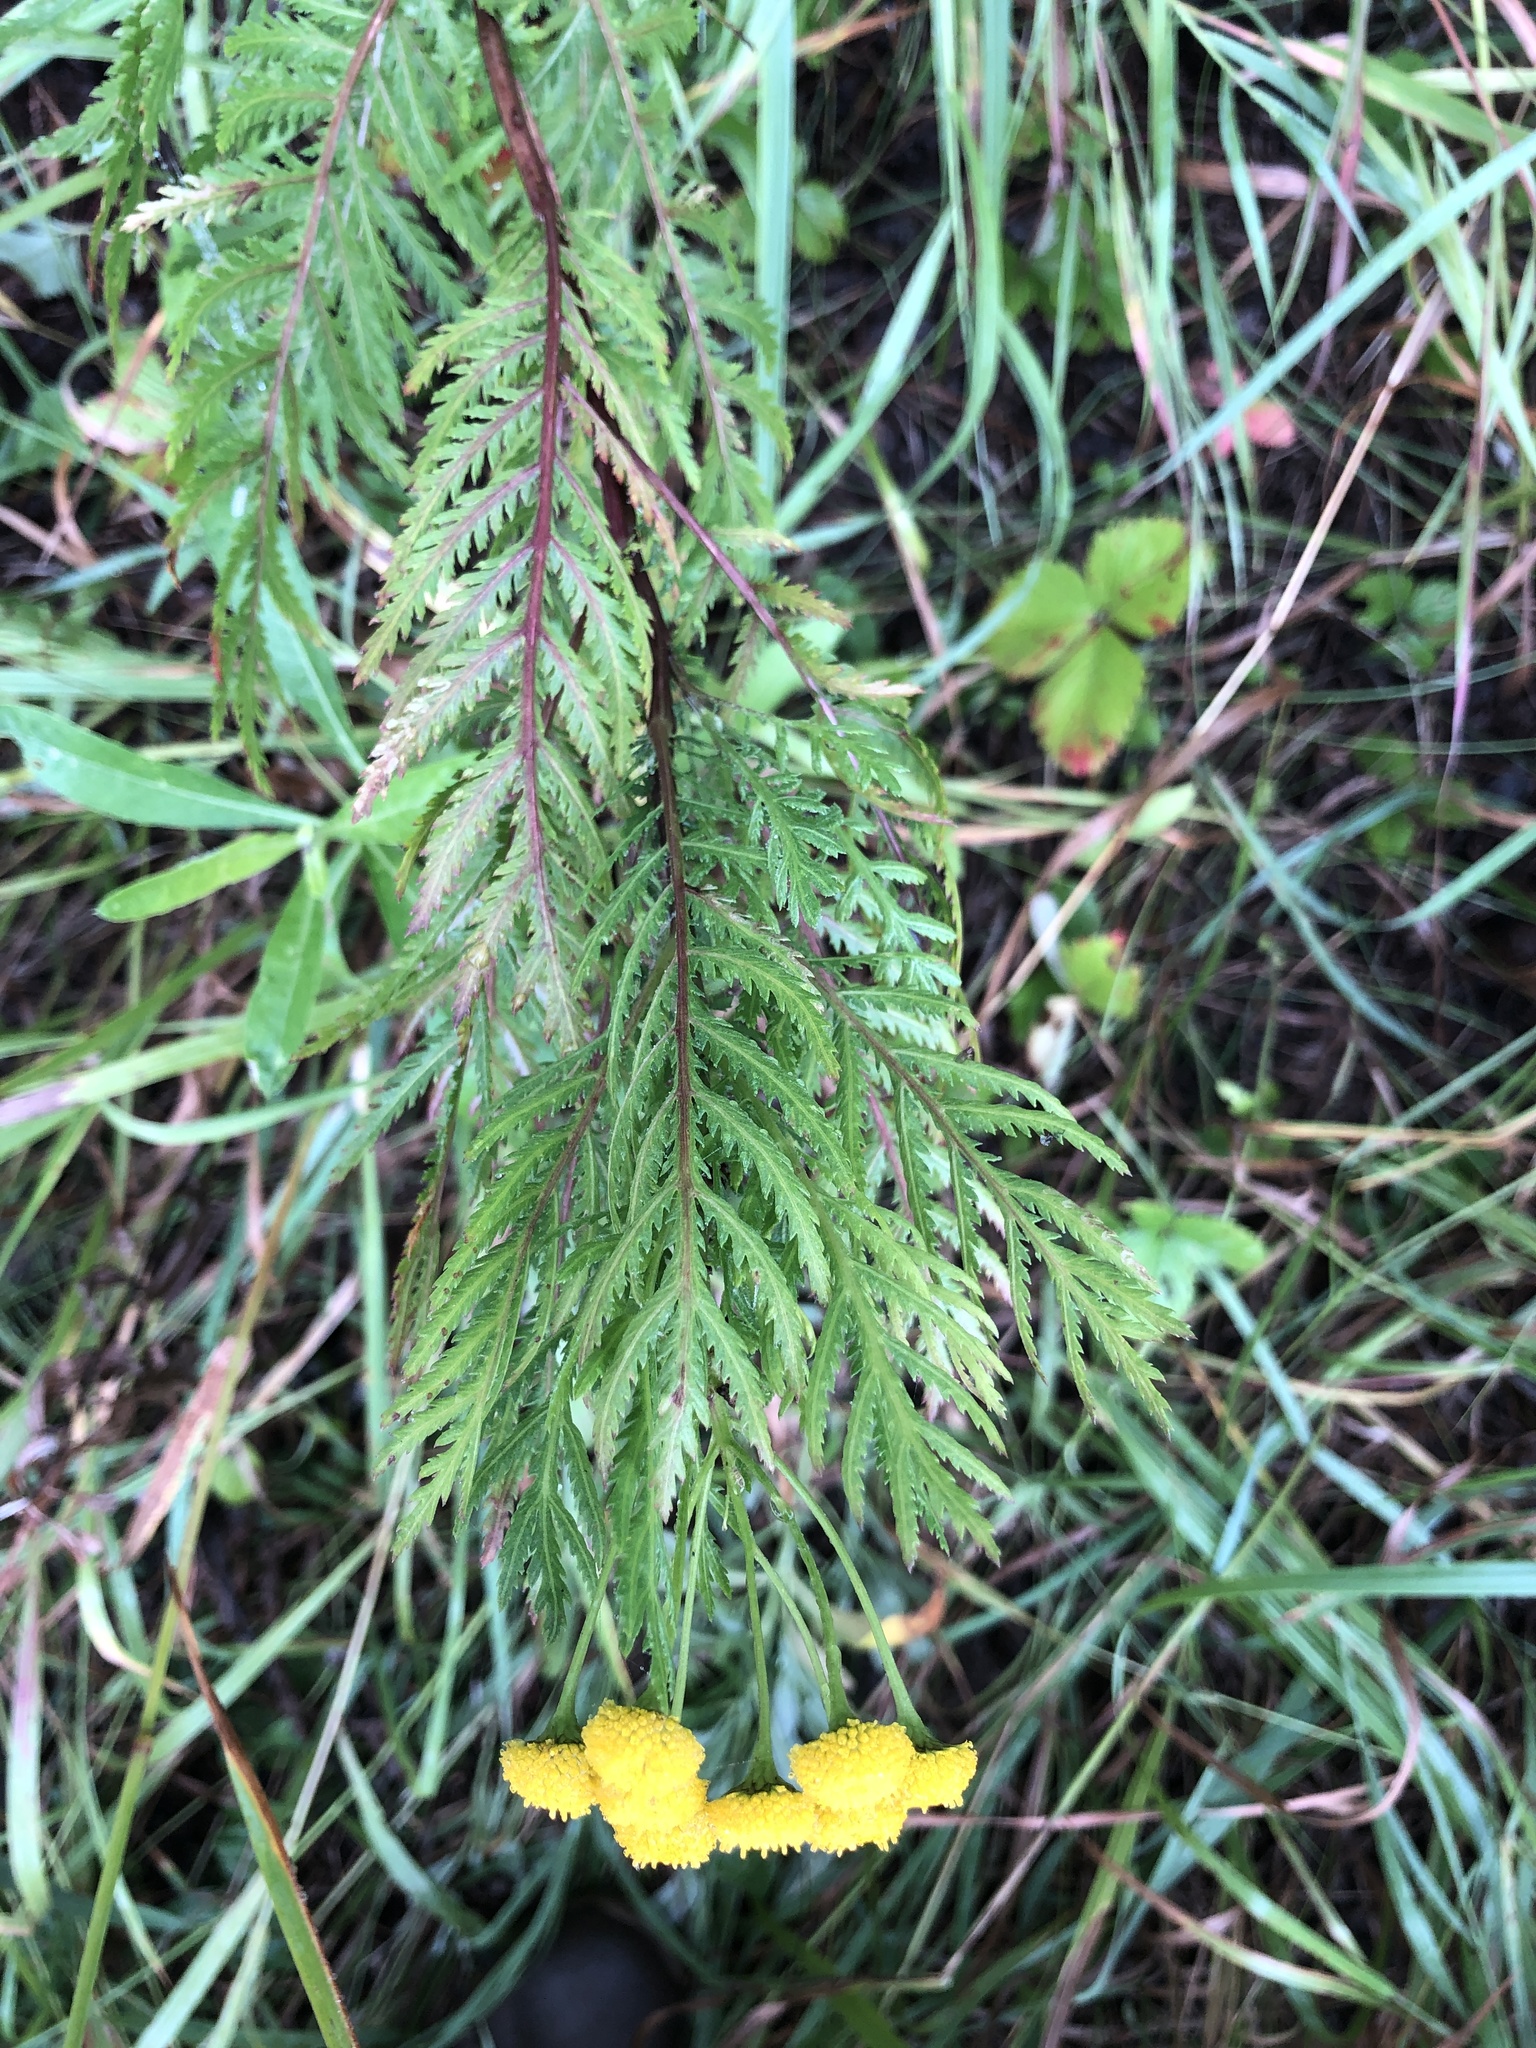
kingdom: Plantae
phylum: Tracheophyta
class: Magnoliopsida
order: Asterales
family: Asteraceae
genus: Tanacetum
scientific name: Tanacetum vulgare
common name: Common tansy
